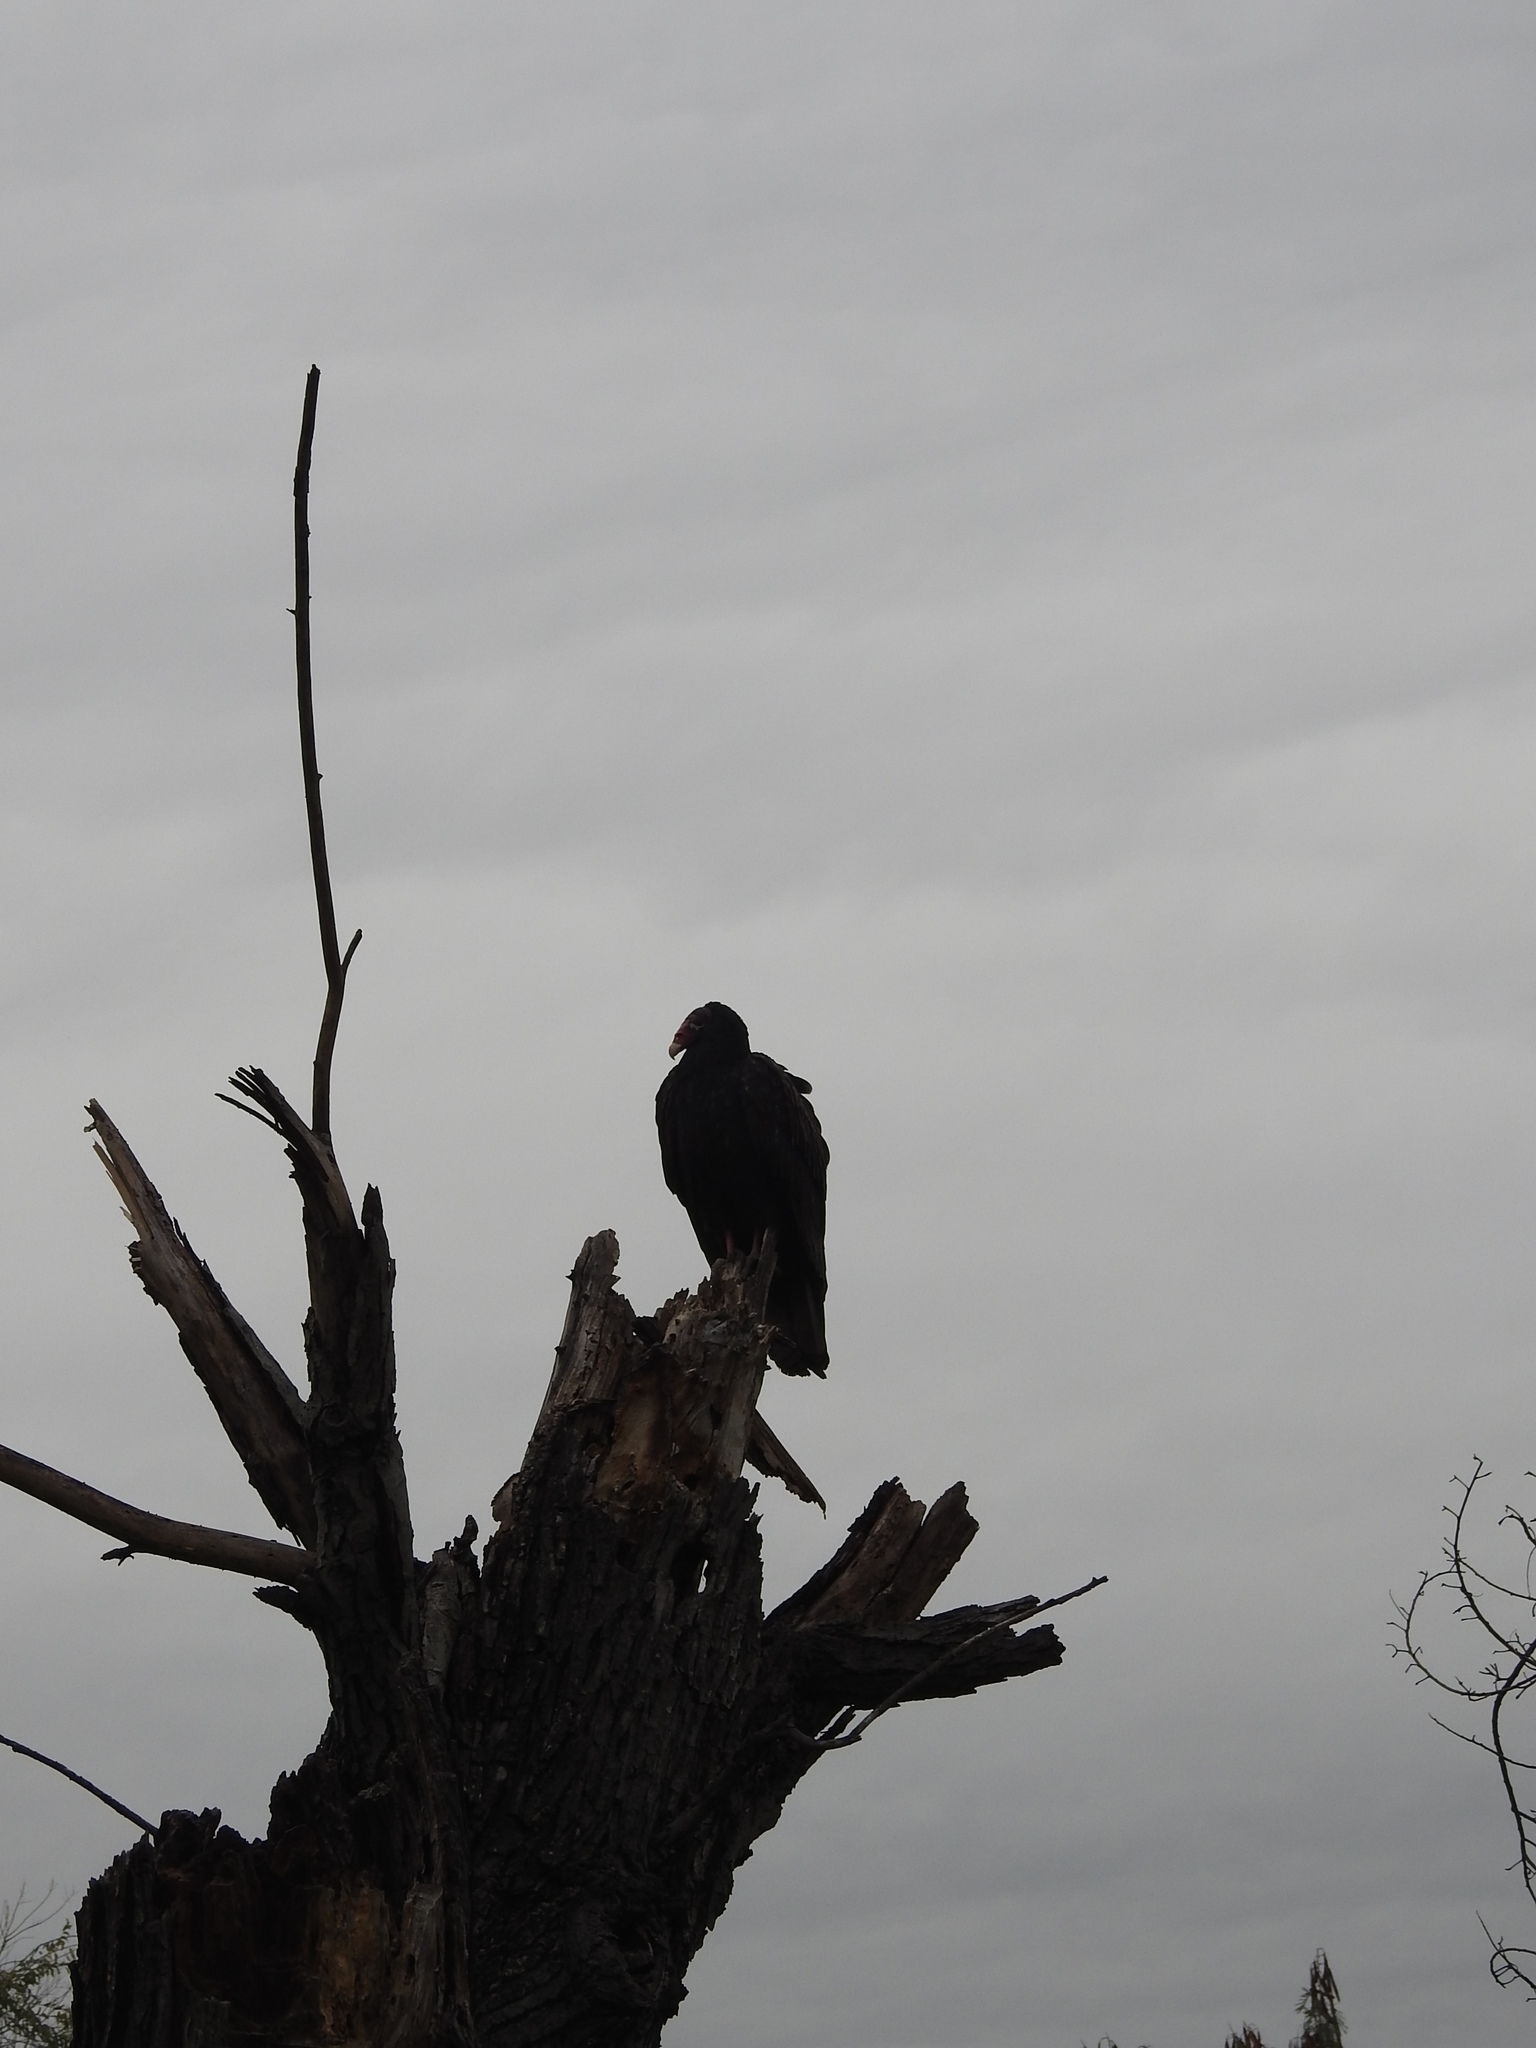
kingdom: Animalia
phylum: Chordata
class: Aves
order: Accipitriformes
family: Cathartidae
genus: Cathartes
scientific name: Cathartes aura
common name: Turkey vulture
